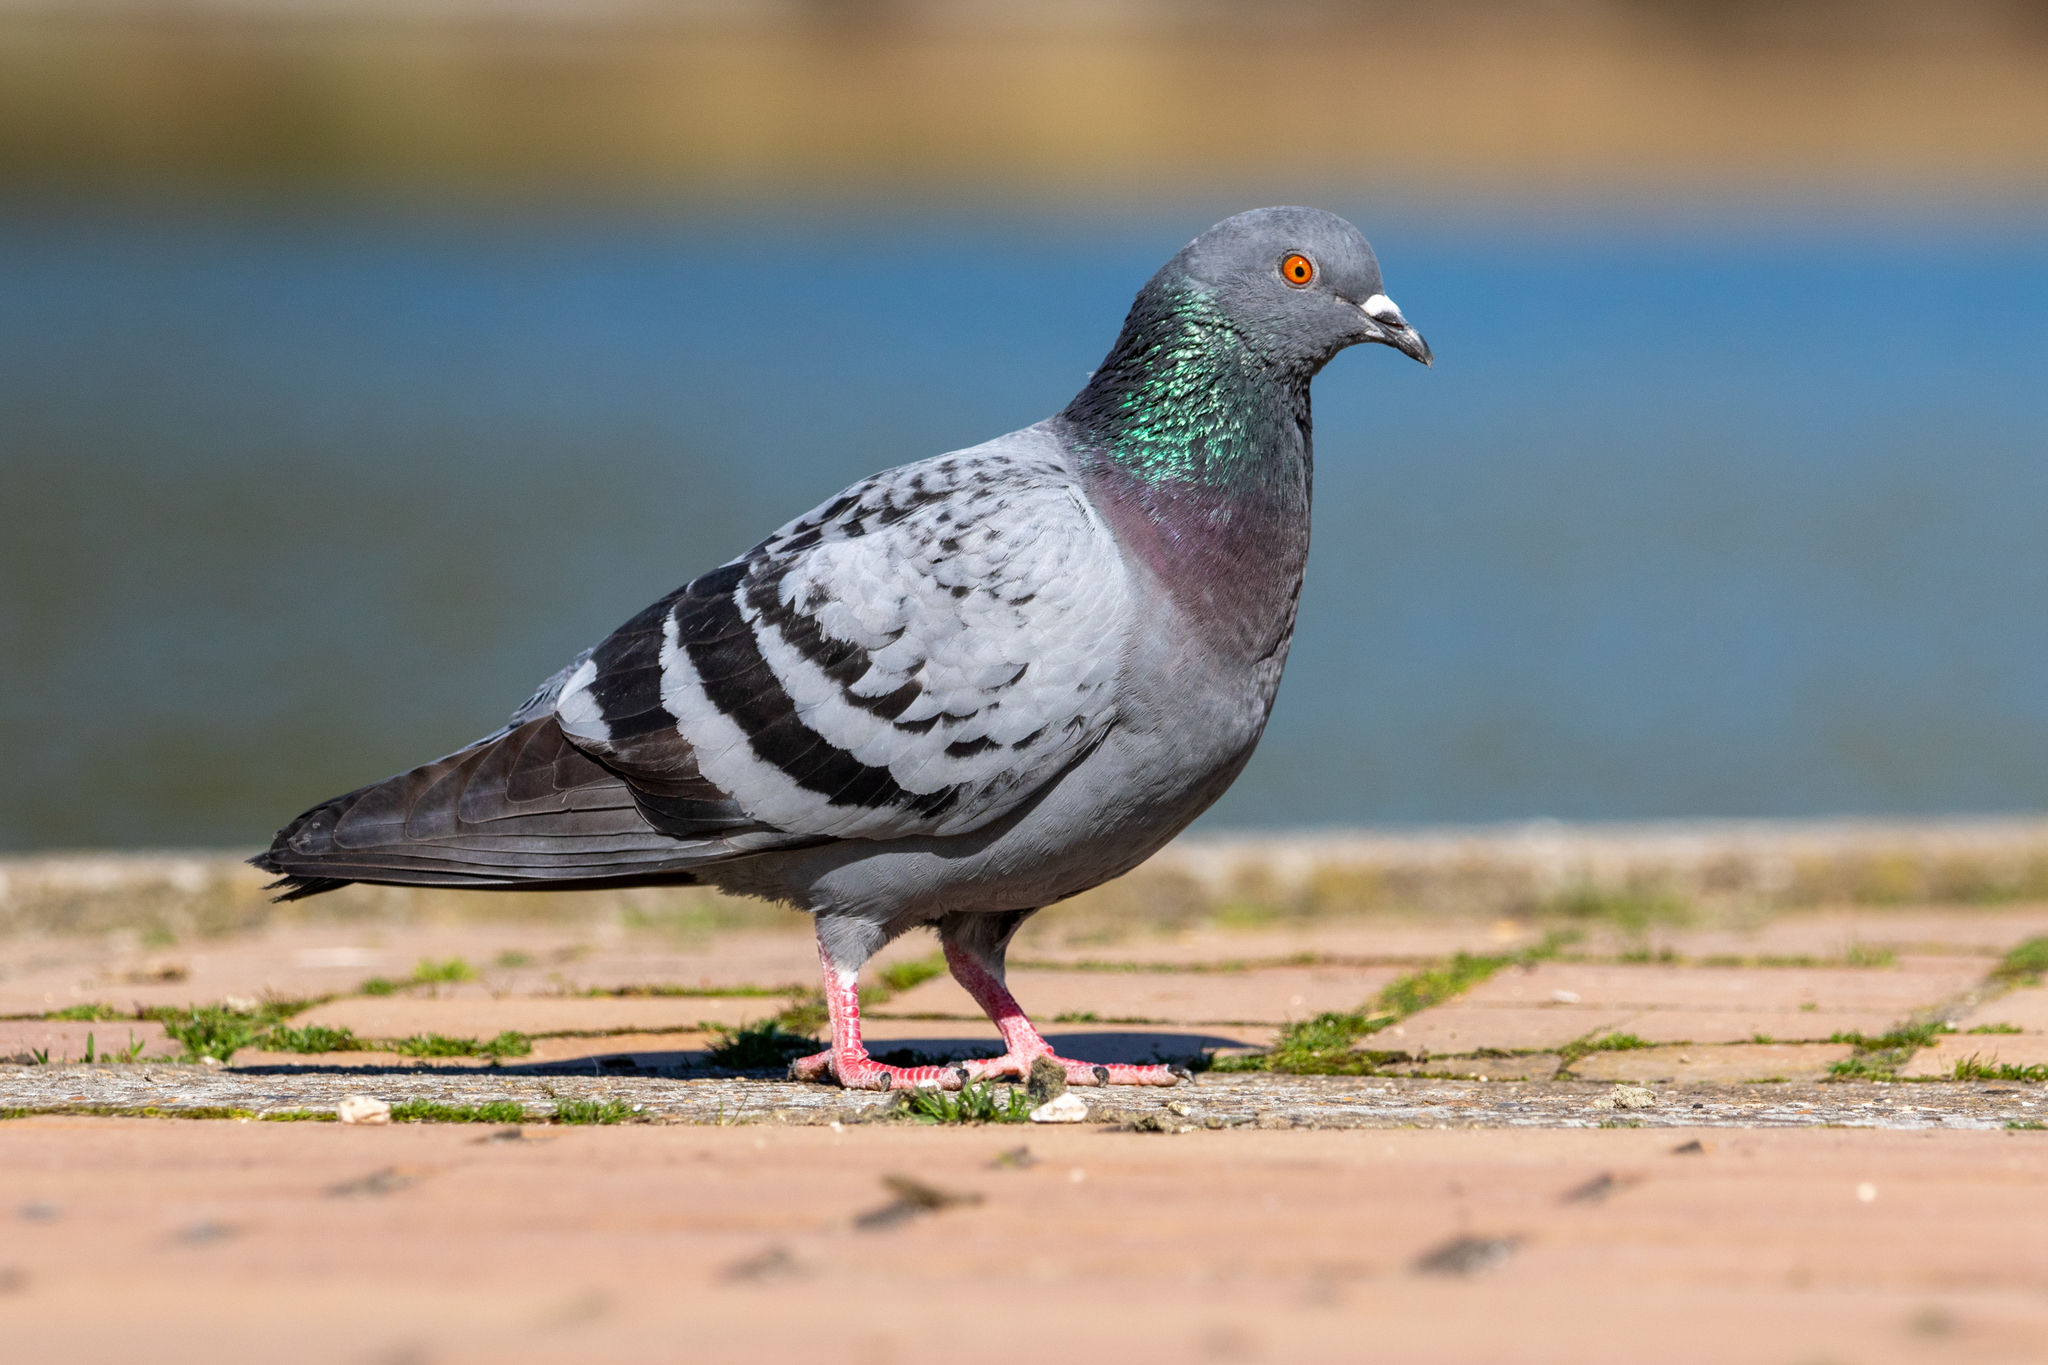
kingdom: Animalia
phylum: Chordata
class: Aves
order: Columbiformes
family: Columbidae
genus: Columba
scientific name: Columba livia
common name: Rock pigeon
